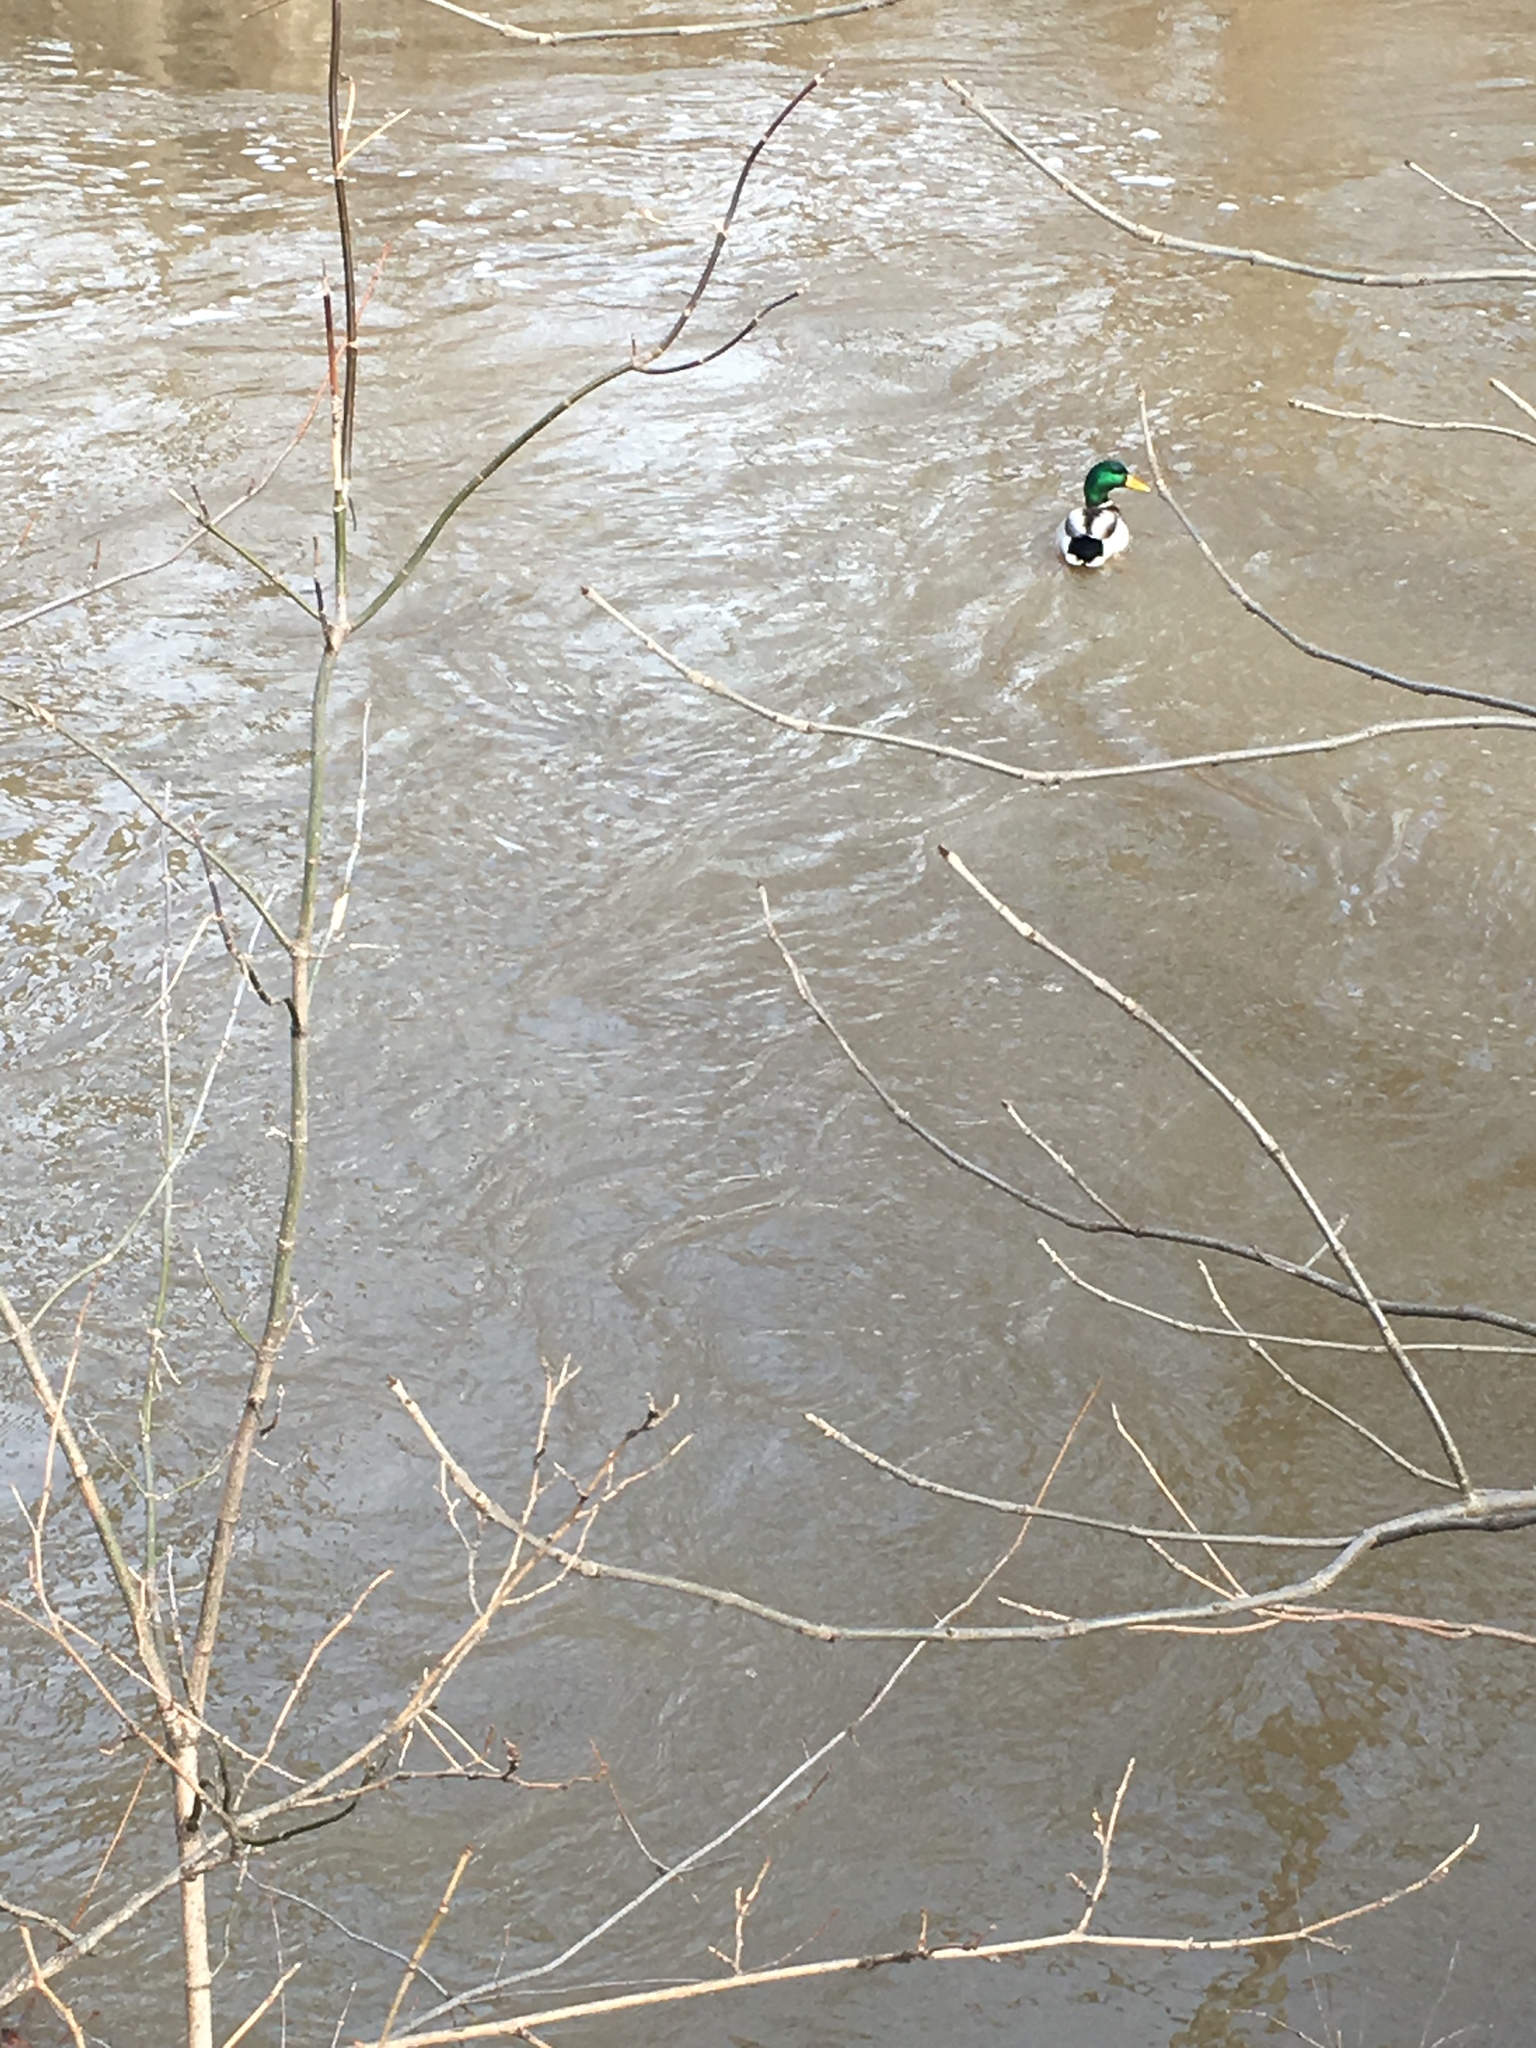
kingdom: Animalia
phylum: Chordata
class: Aves
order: Anseriformes
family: Anatidae
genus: Anas
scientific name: Anas platyrhynchos
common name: Mallard
